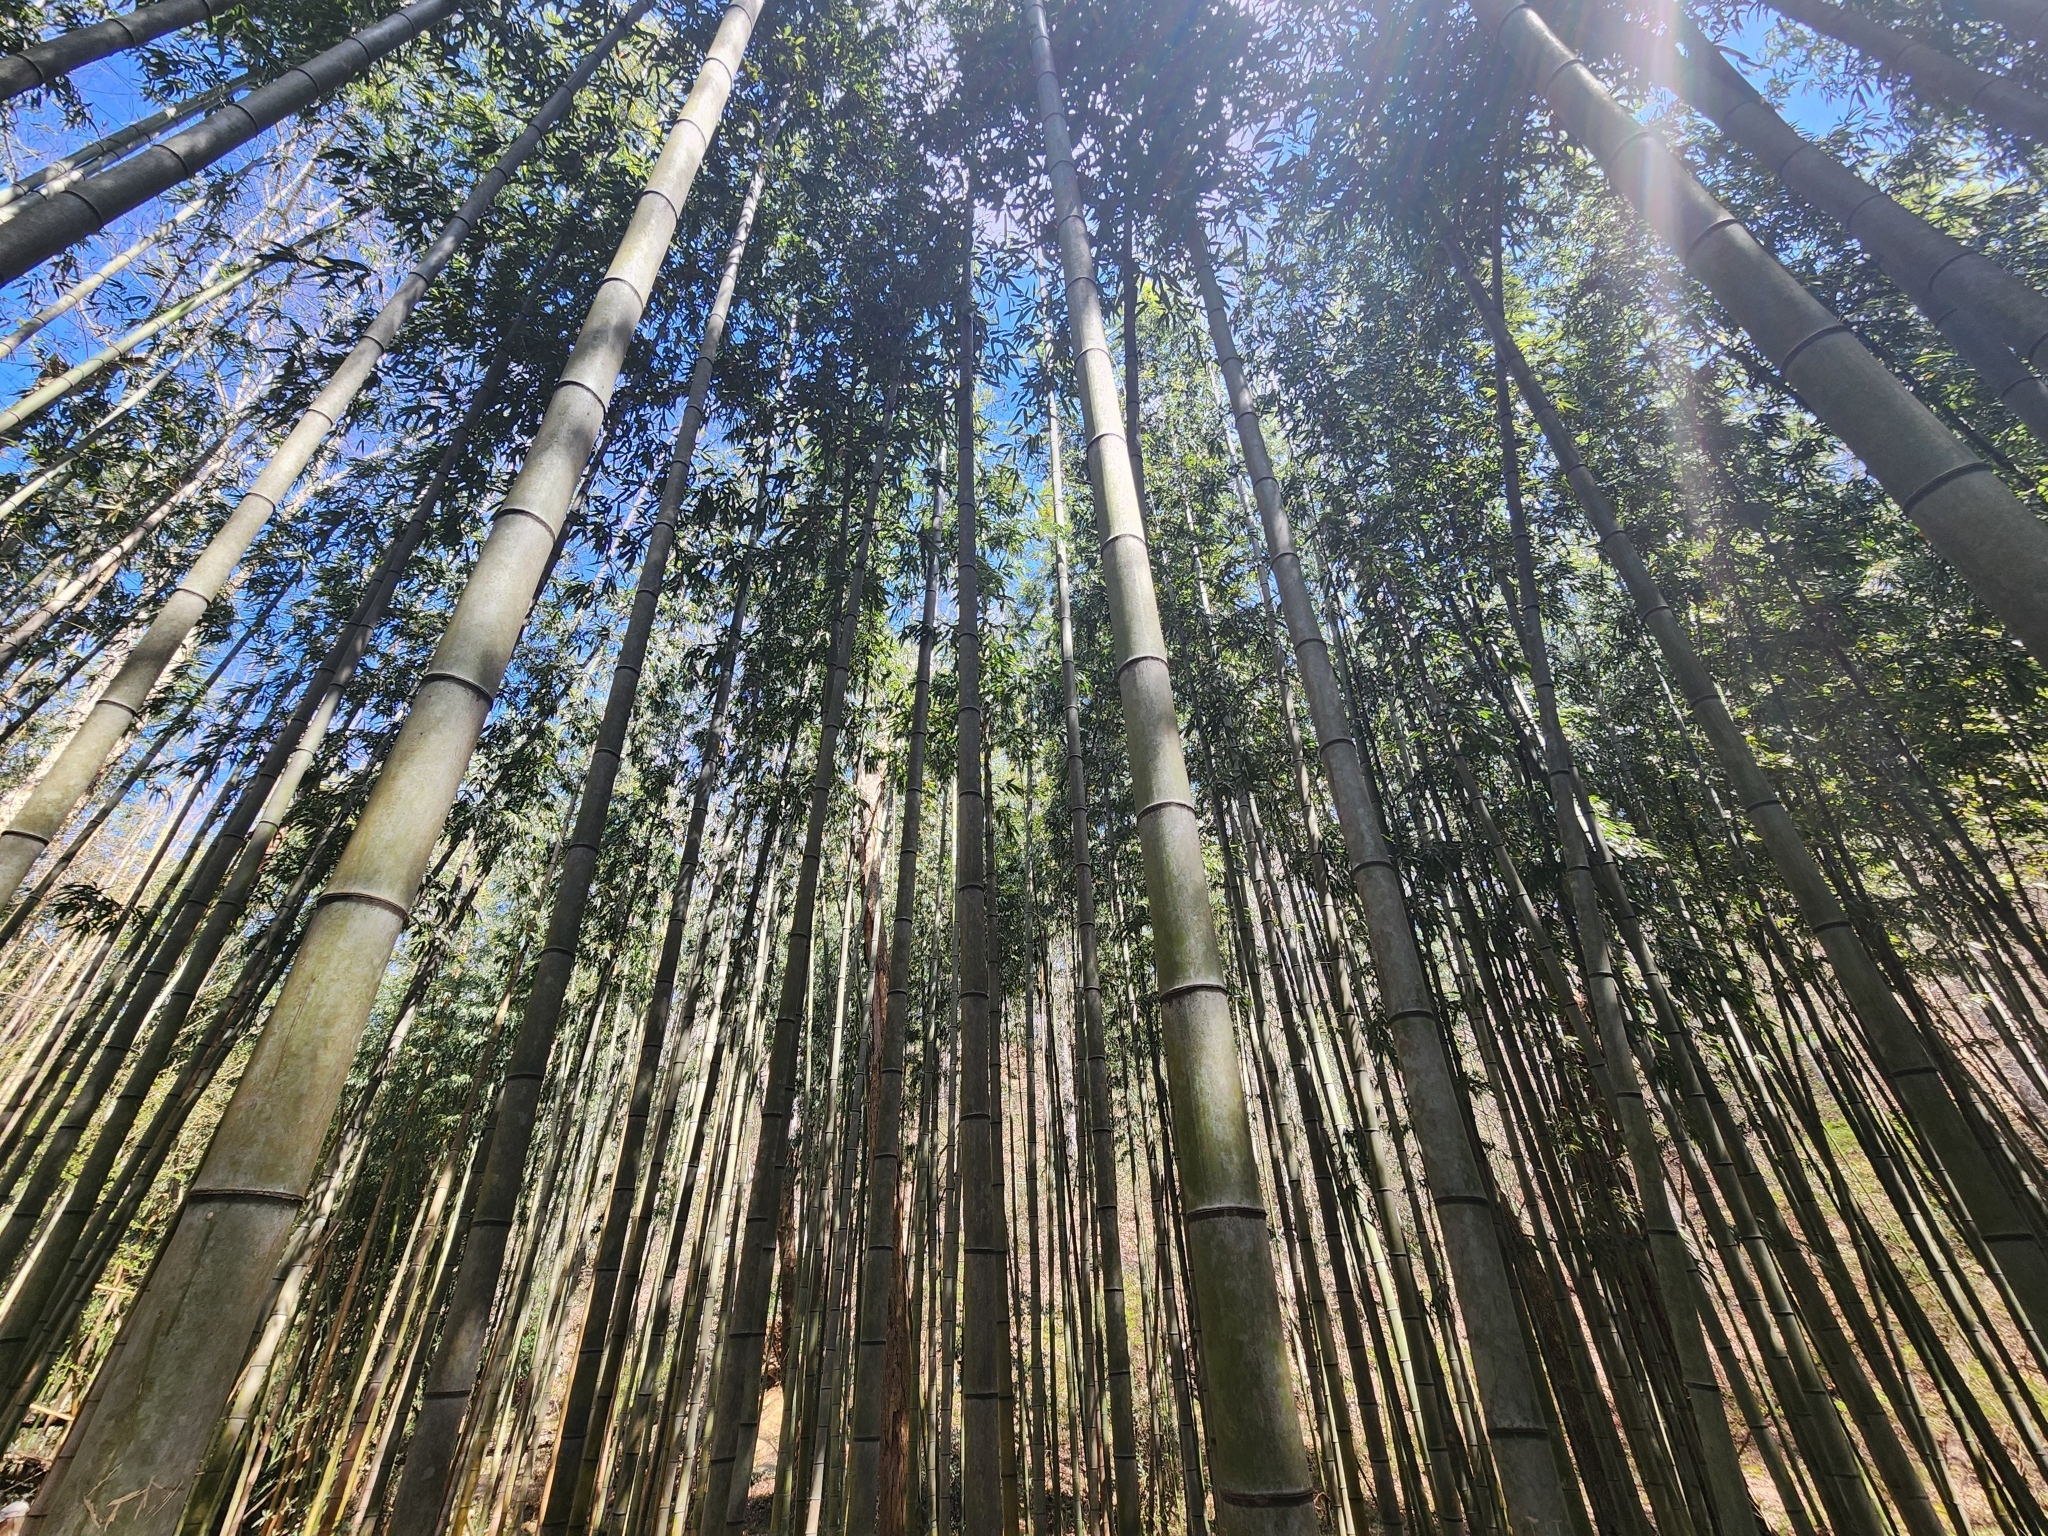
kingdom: Plantae
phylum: Tracheophyta
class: Liliopsida
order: Poales
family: Poaceae
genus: Phyllostachys
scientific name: Phyllostachys reticulata
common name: Bamboo
